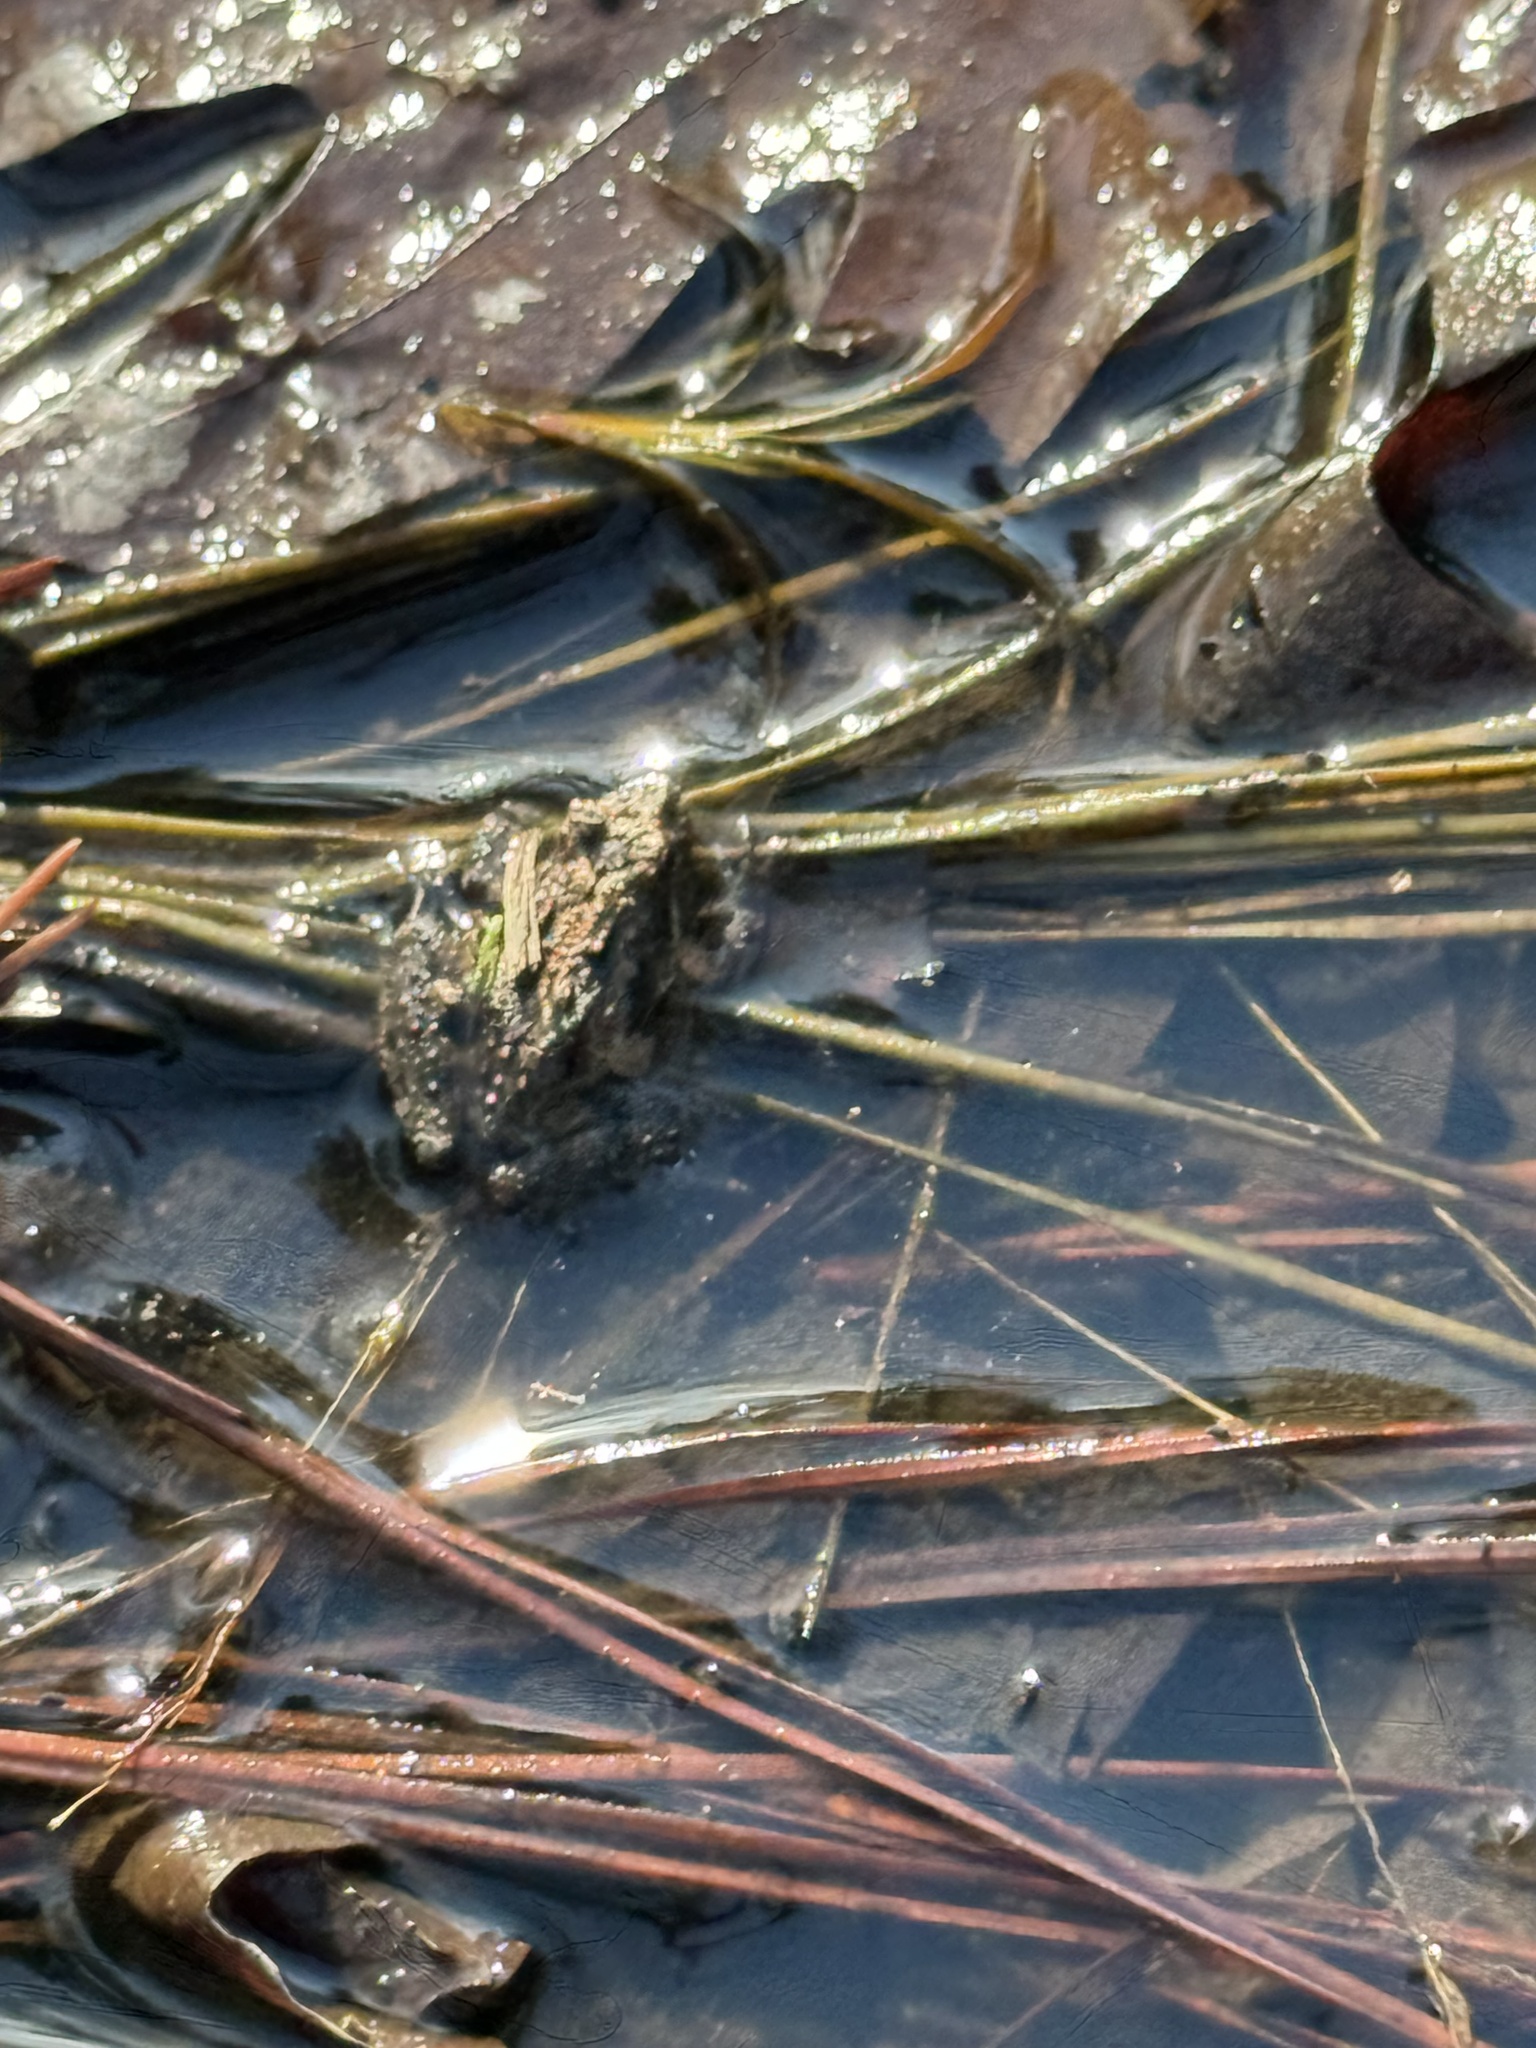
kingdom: Animalia
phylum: Chordata
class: Amphibia
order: Anura
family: Hylidae
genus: Acris
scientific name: Acris crepitans
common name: Northern cricket frog
